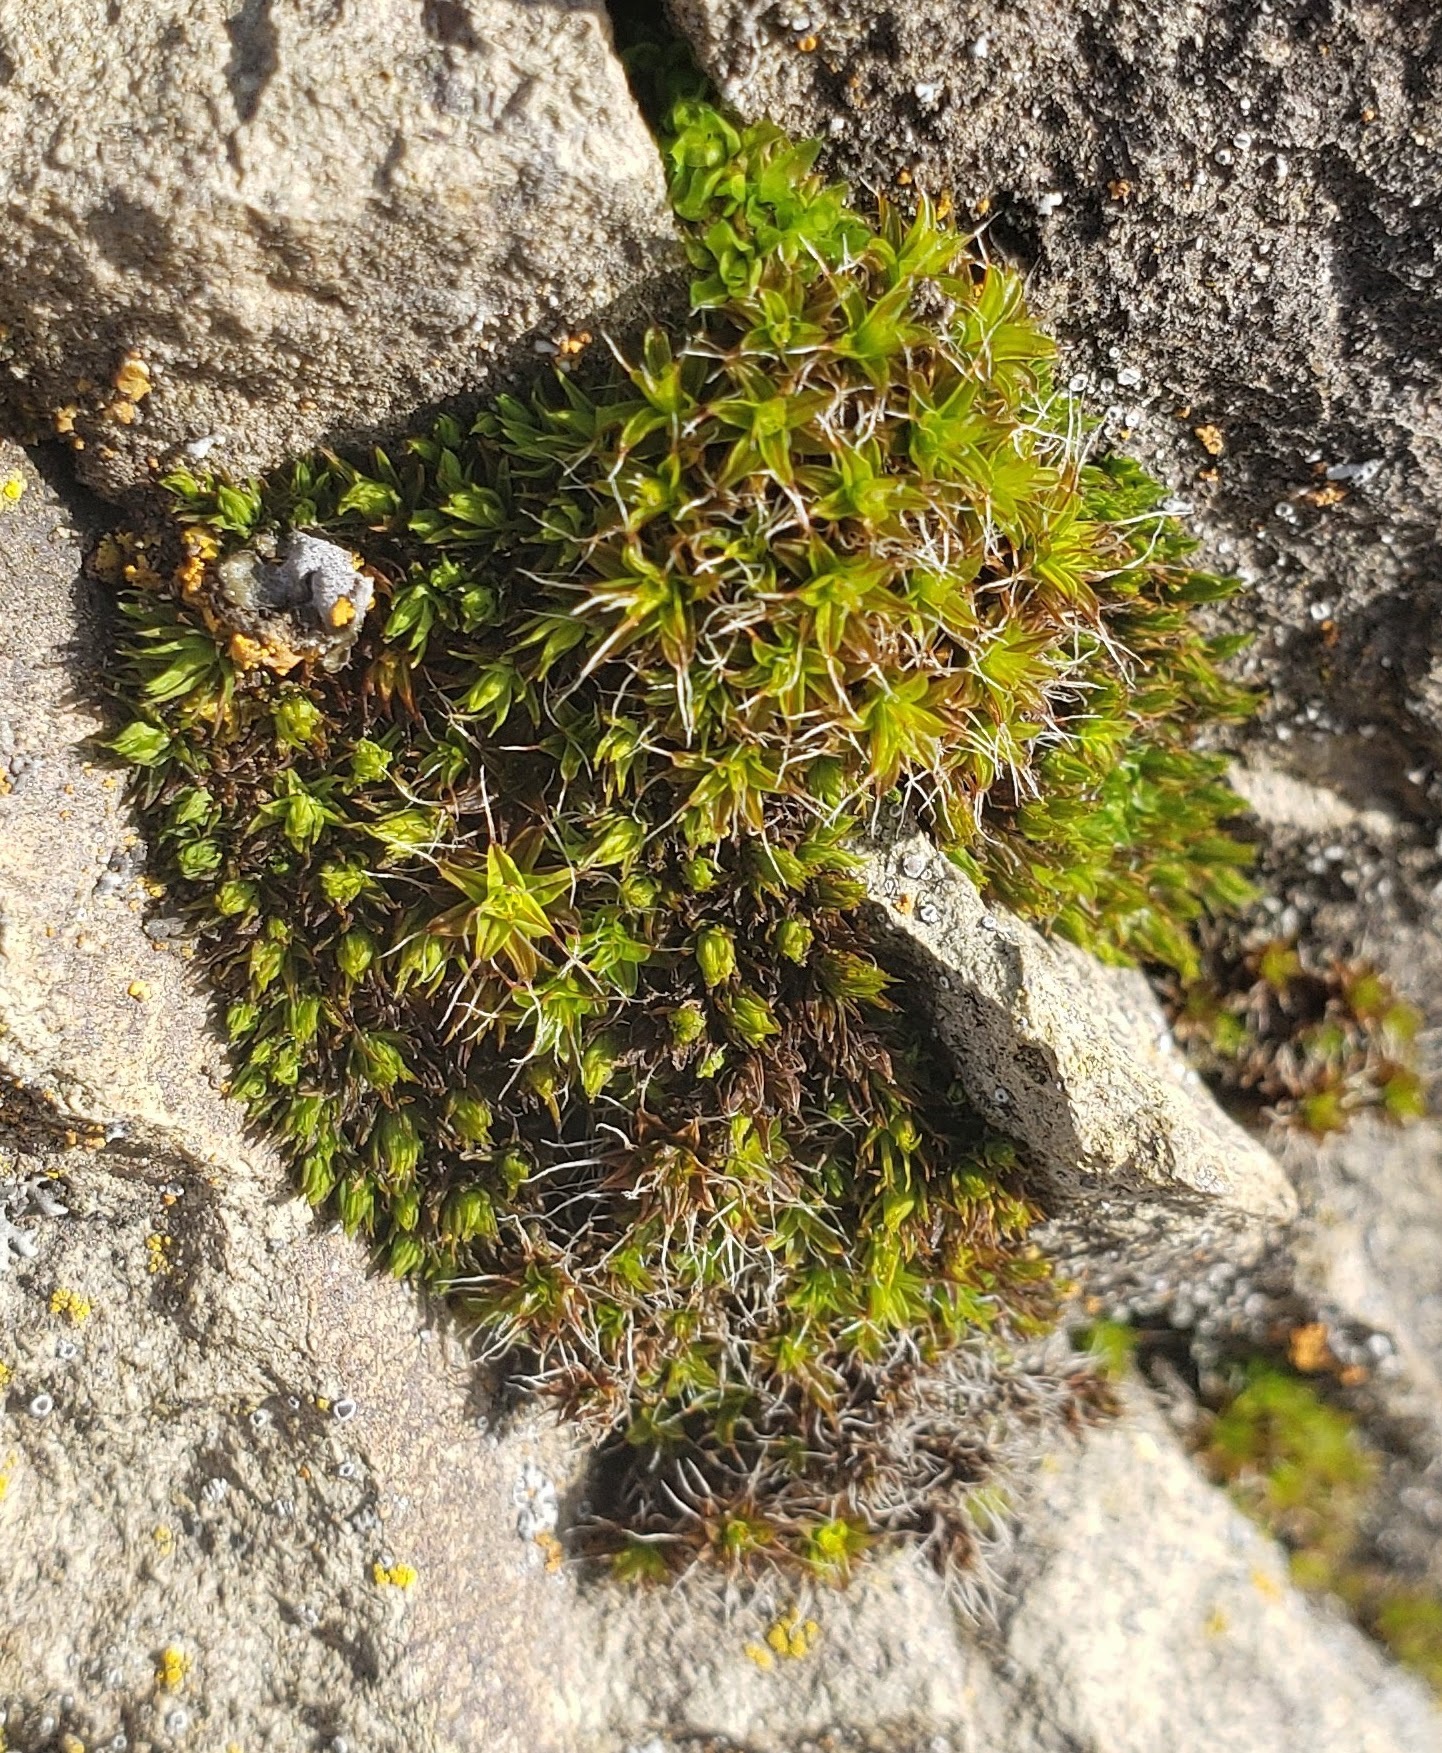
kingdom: Plantae
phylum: Bryophyta
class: Bryopsida
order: Pottiales
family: Pottiaceae
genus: Syntrichia
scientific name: Syntrichia ruralis
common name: Sidewalk screw moss
